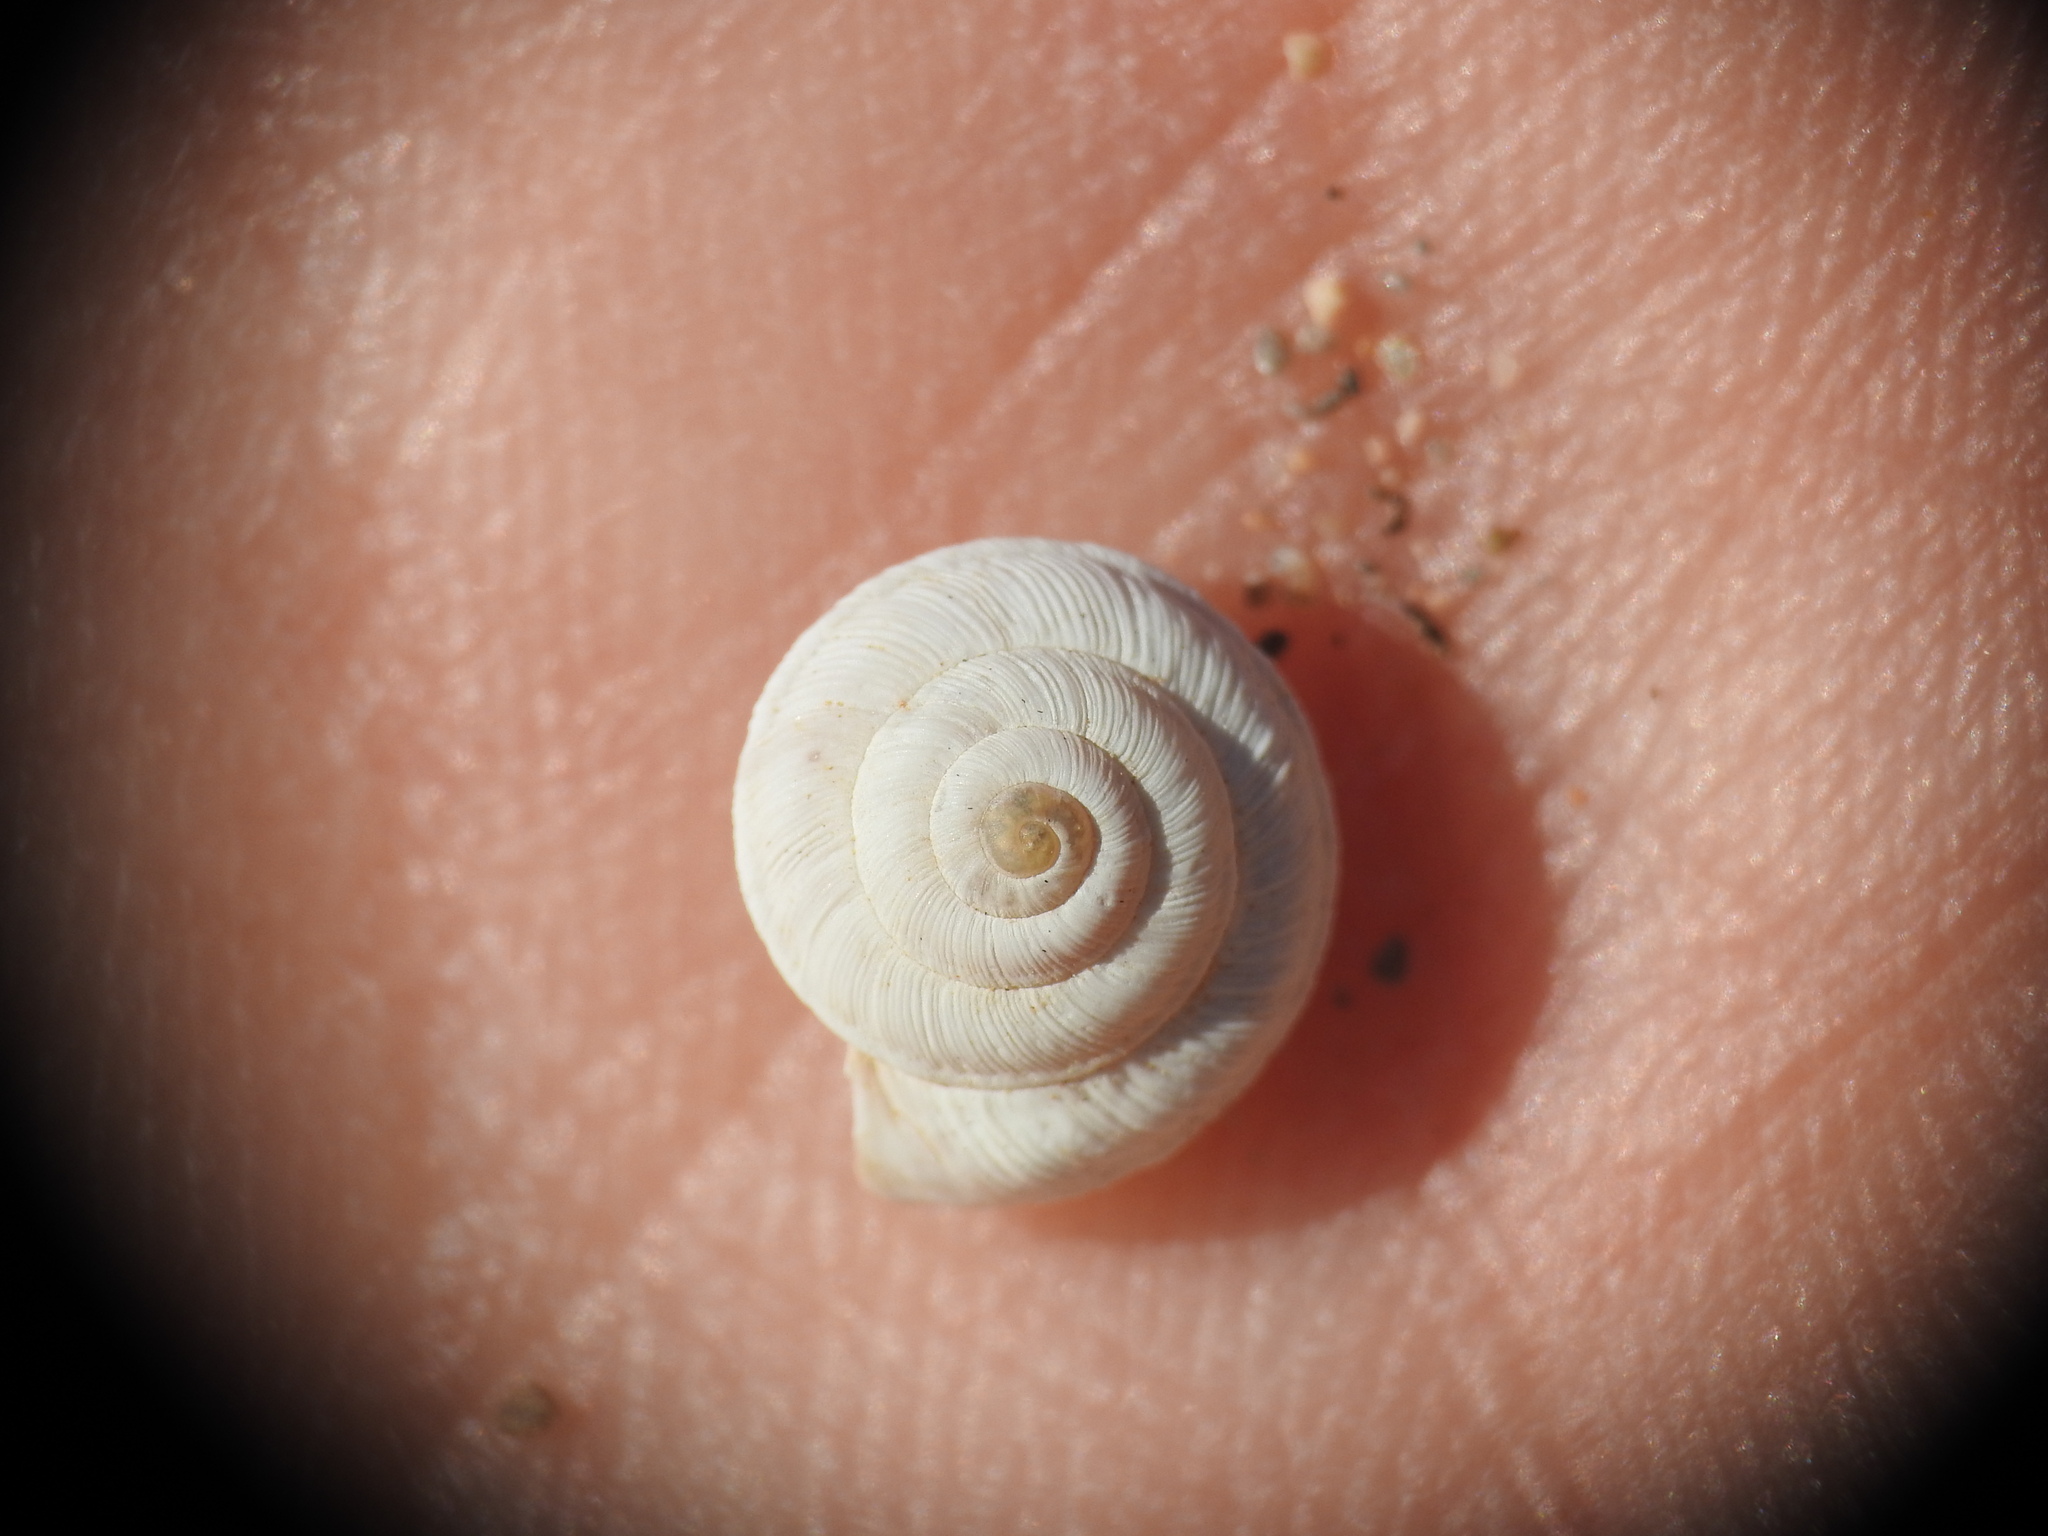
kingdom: Animalia
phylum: Mollusca
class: Gastropoda
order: Stylommatophora
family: Geomitridae
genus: Xerocrassa
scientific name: Xerocrassa mesostena
